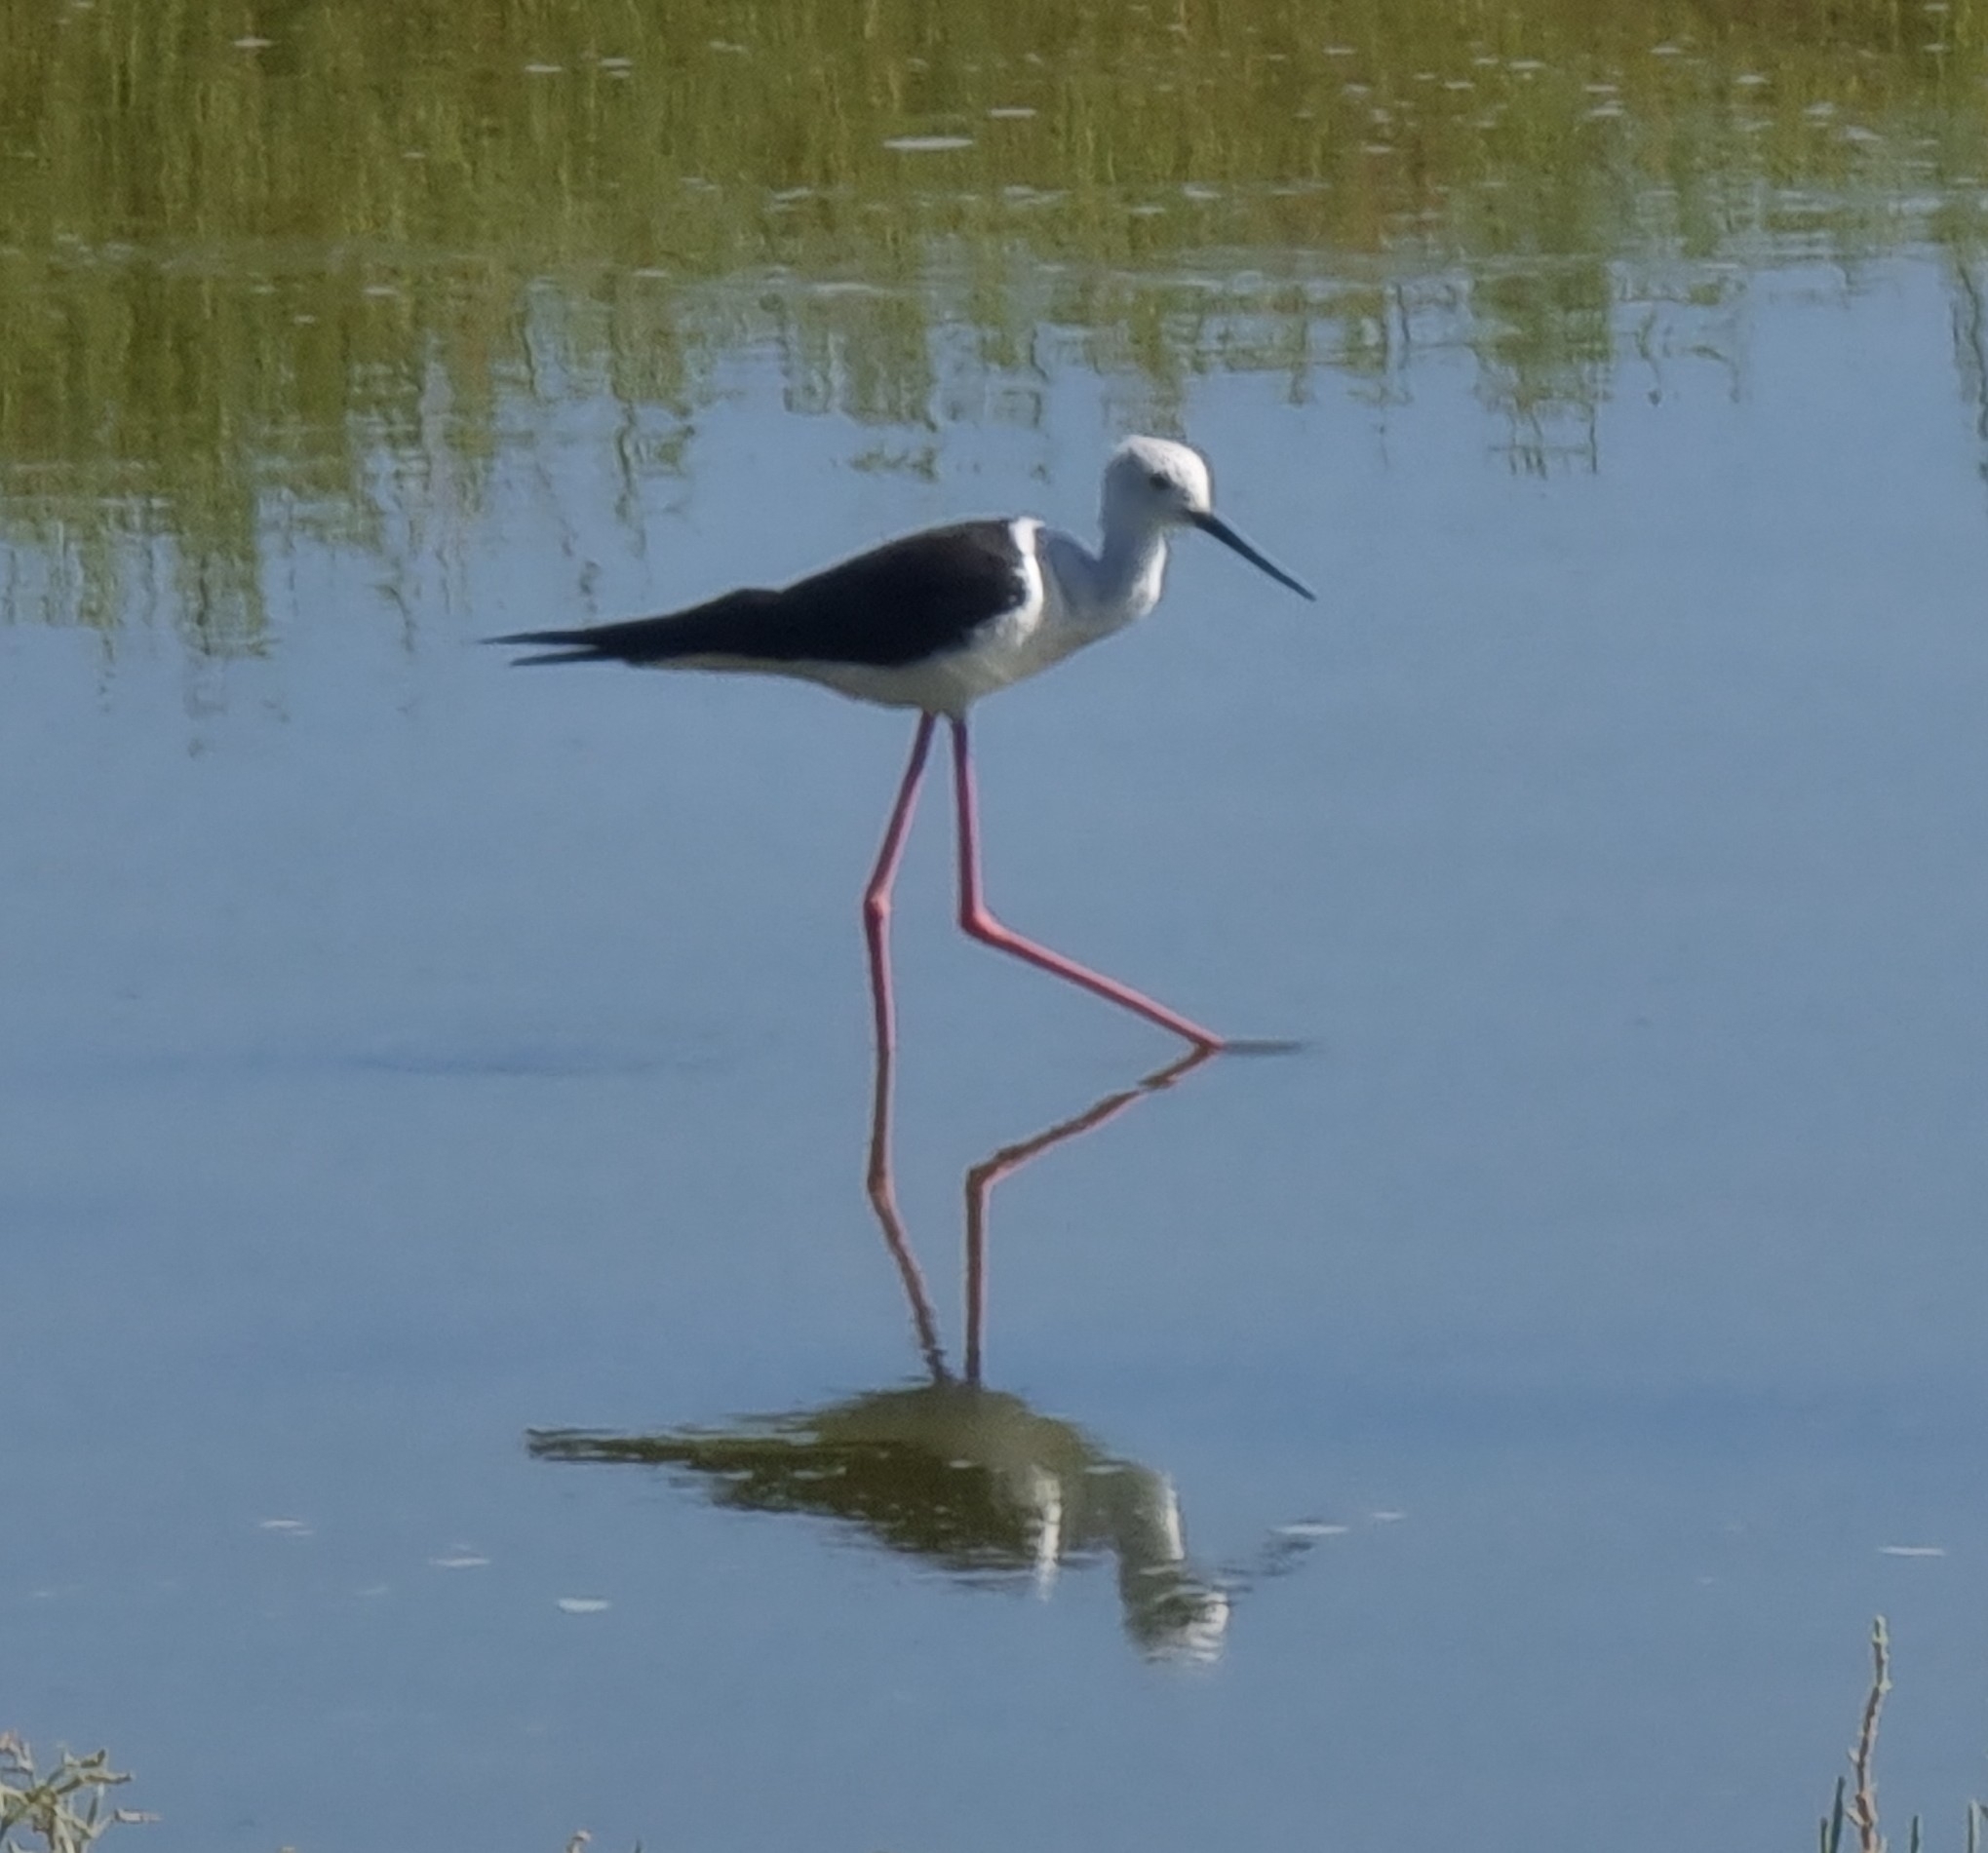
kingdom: Animalia
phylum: Chordata
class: Aves
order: Charadriiformes
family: Recurvirostridae
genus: Himantopus
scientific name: Himantopus himantopus
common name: Black-winged stilt
